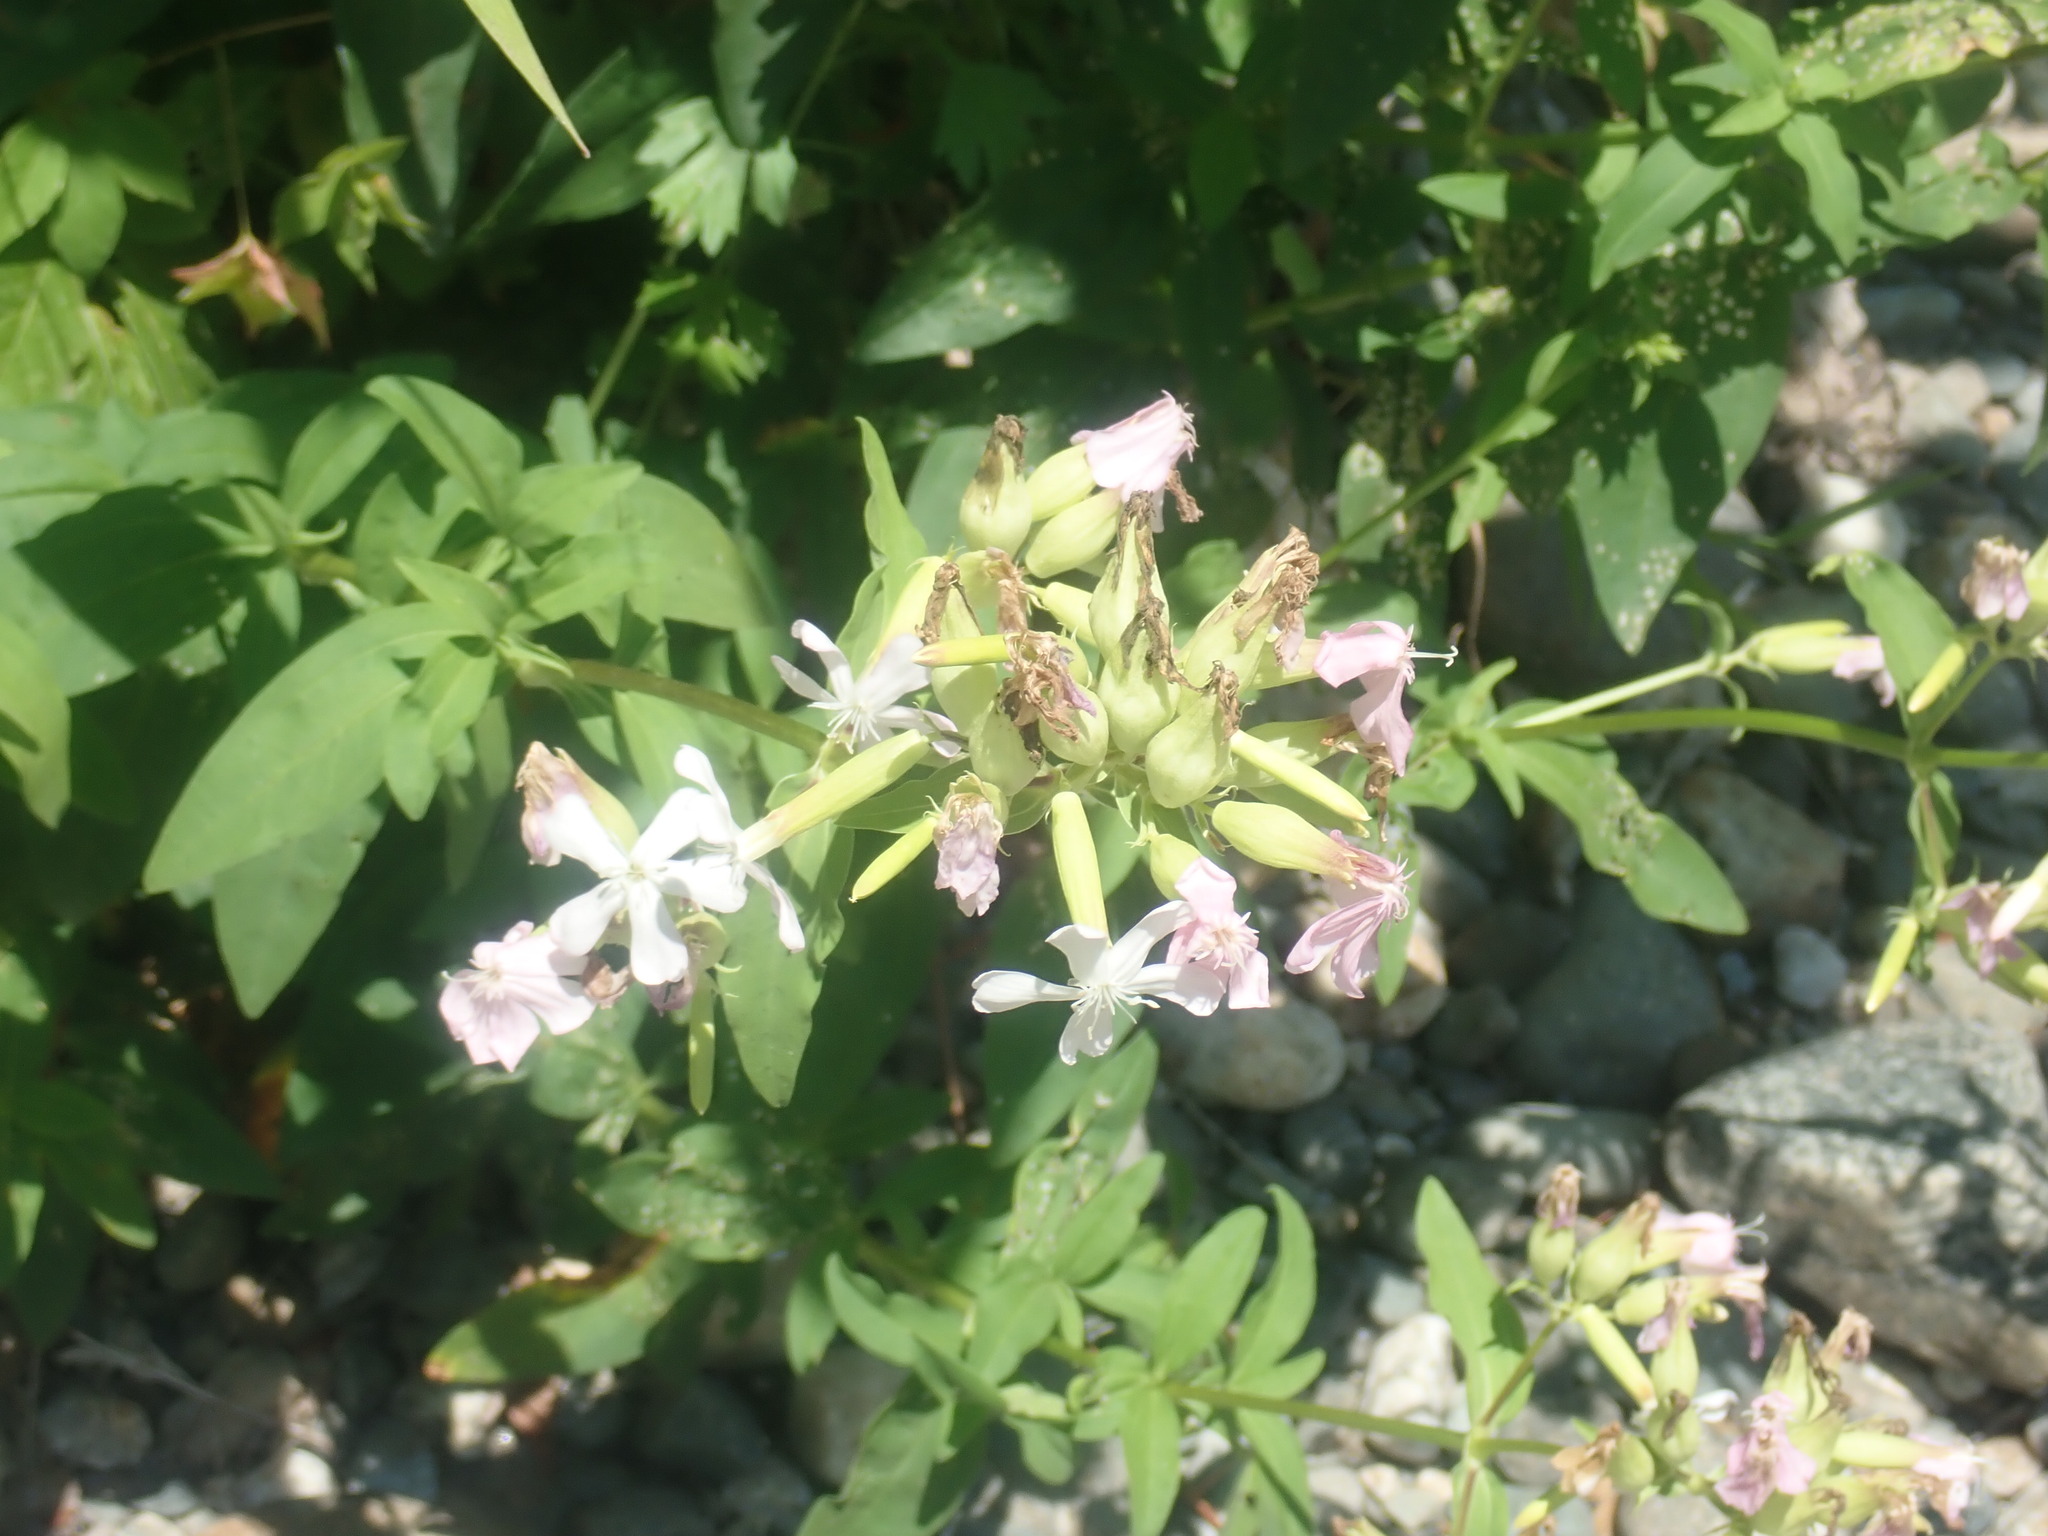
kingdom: Plantae
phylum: Tracheophyta
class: Magnoliopsida
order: Caryophyllales
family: Caryophyllaceae
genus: Saponaria
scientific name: Saponaria officinalis
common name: Soapwort
